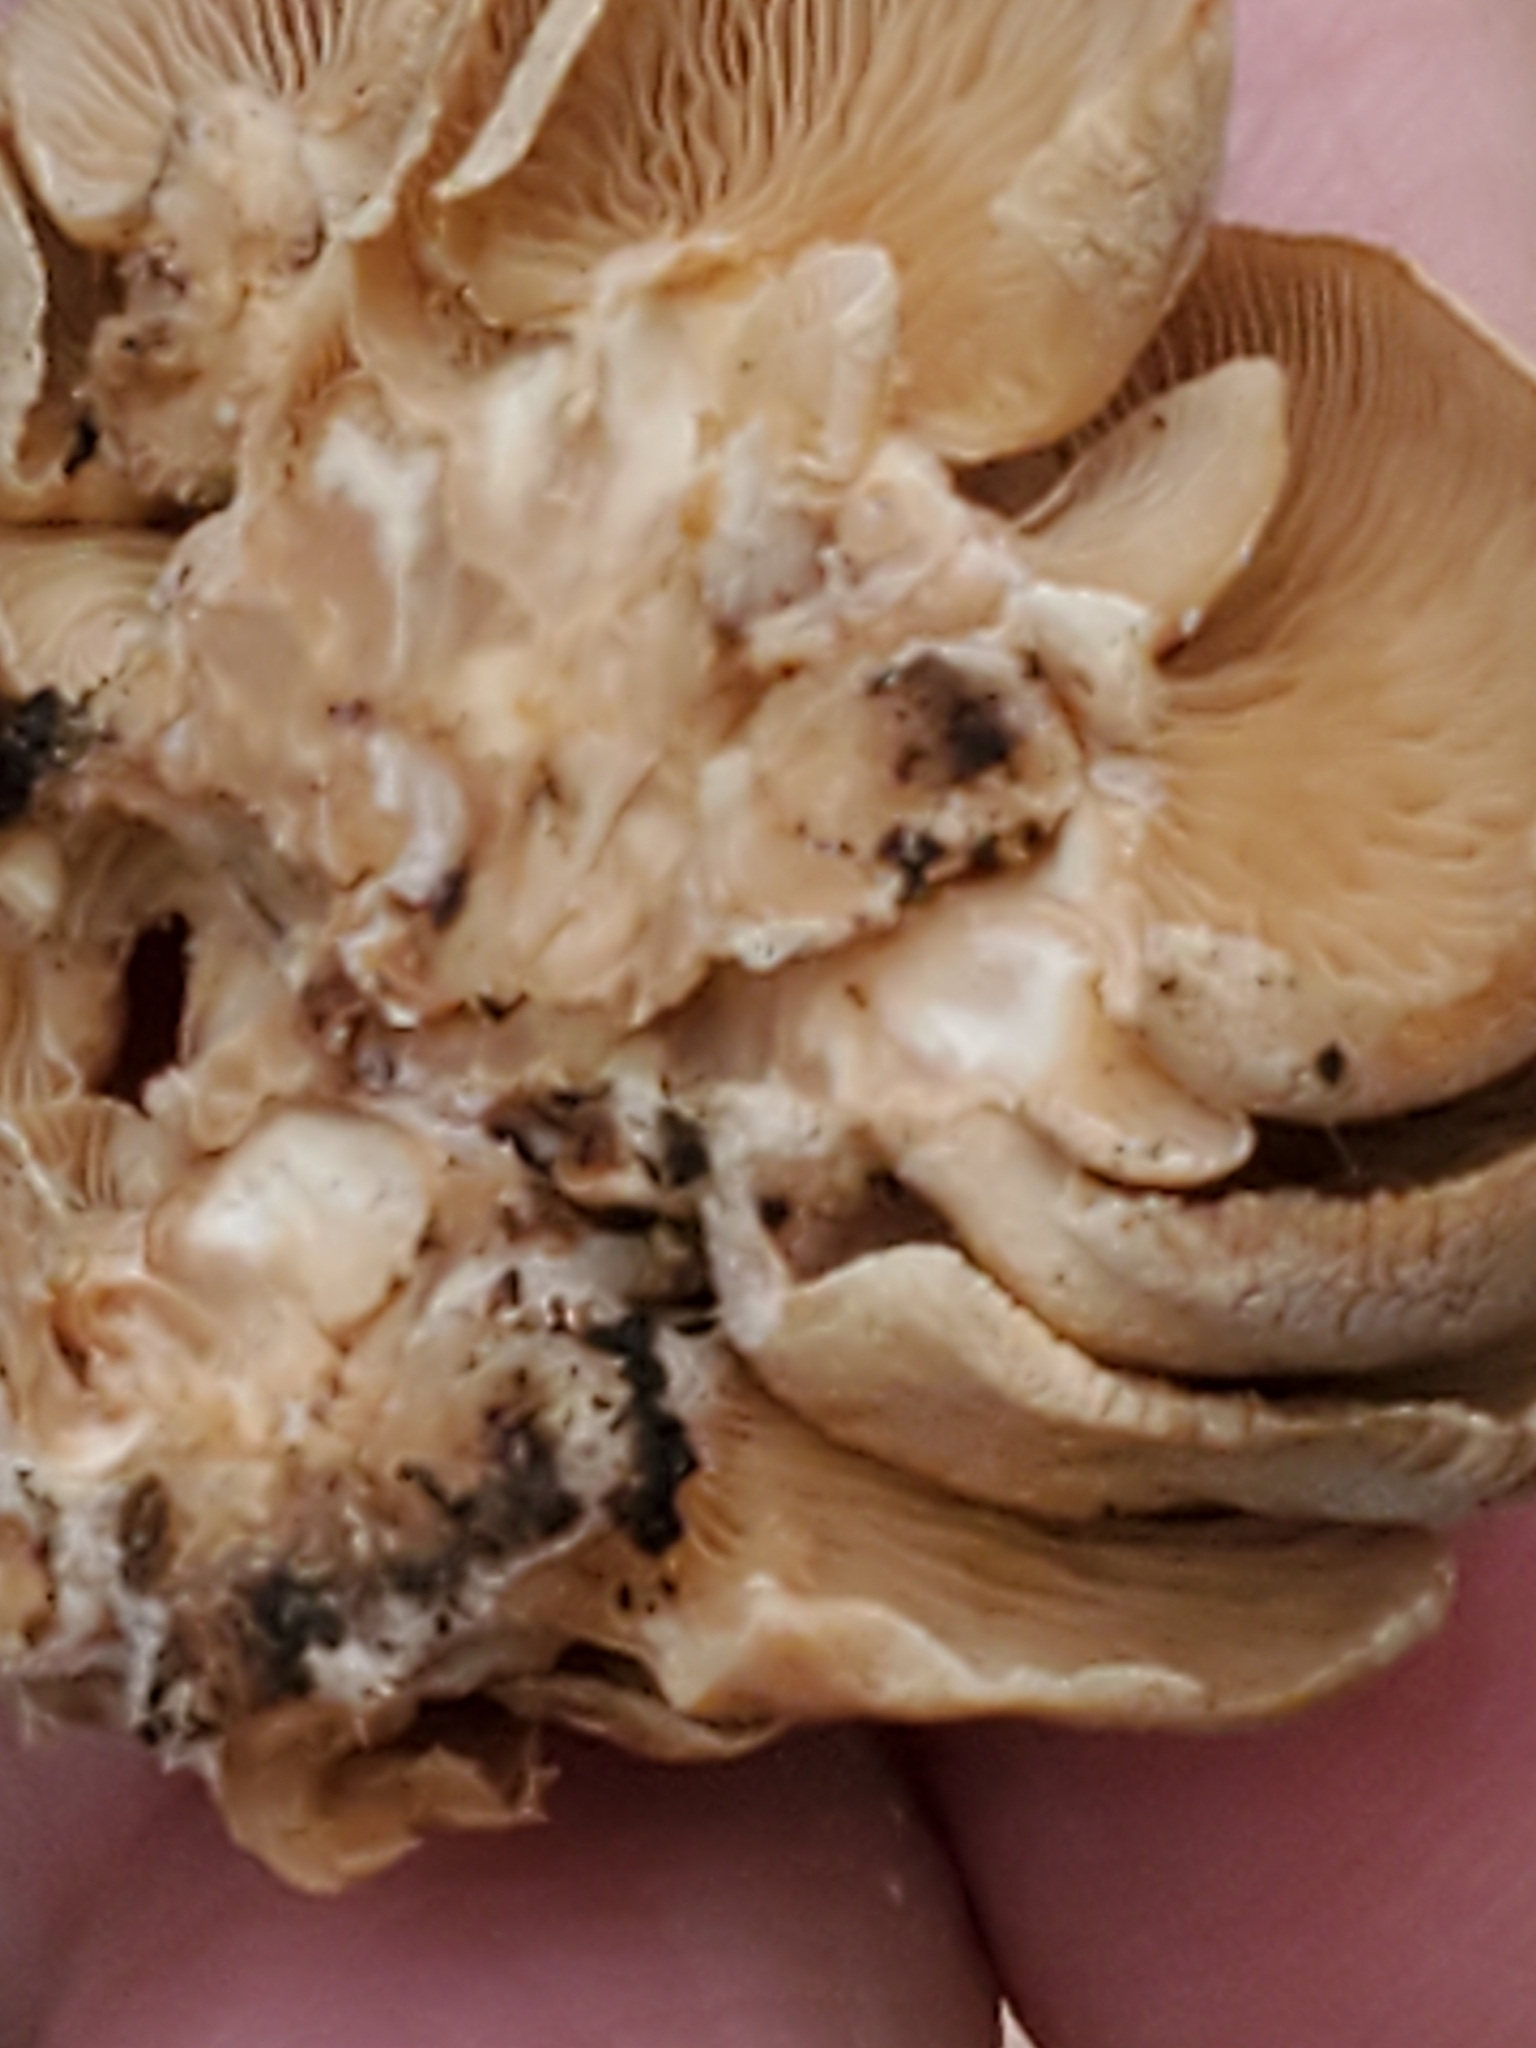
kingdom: Fungi
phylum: Basidiomycota
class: Agaricomycetes
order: Agaricales
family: Mycenaceae
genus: Panellus
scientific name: Panellus stipticus
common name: Bitter oysterling
